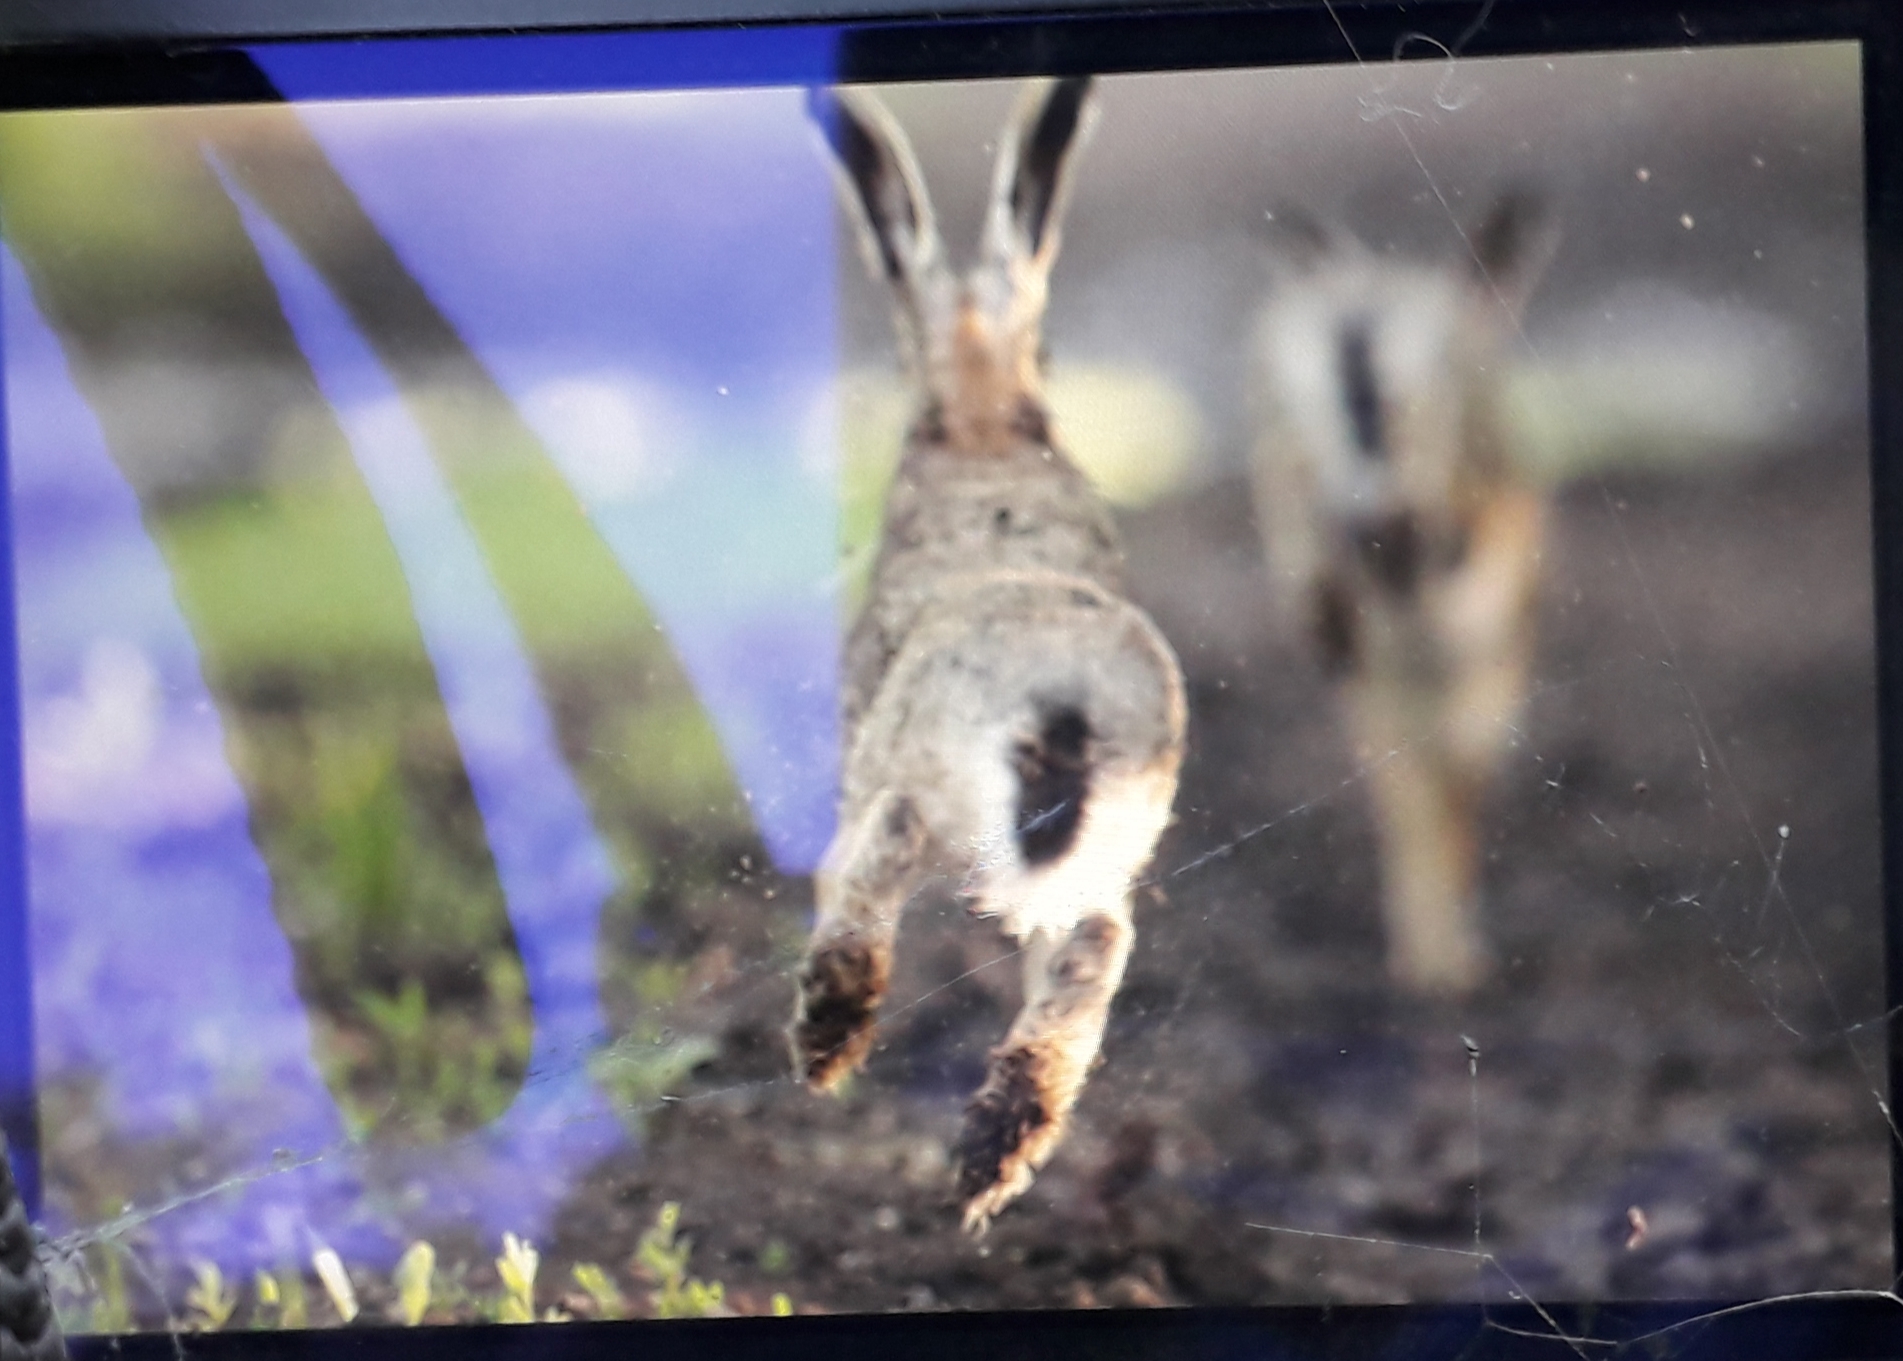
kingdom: Animalia
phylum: Chordata
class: Mammalia
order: Lagomorpha
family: Leporidae
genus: Lepus
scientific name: Lepus europaeus
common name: European hare
